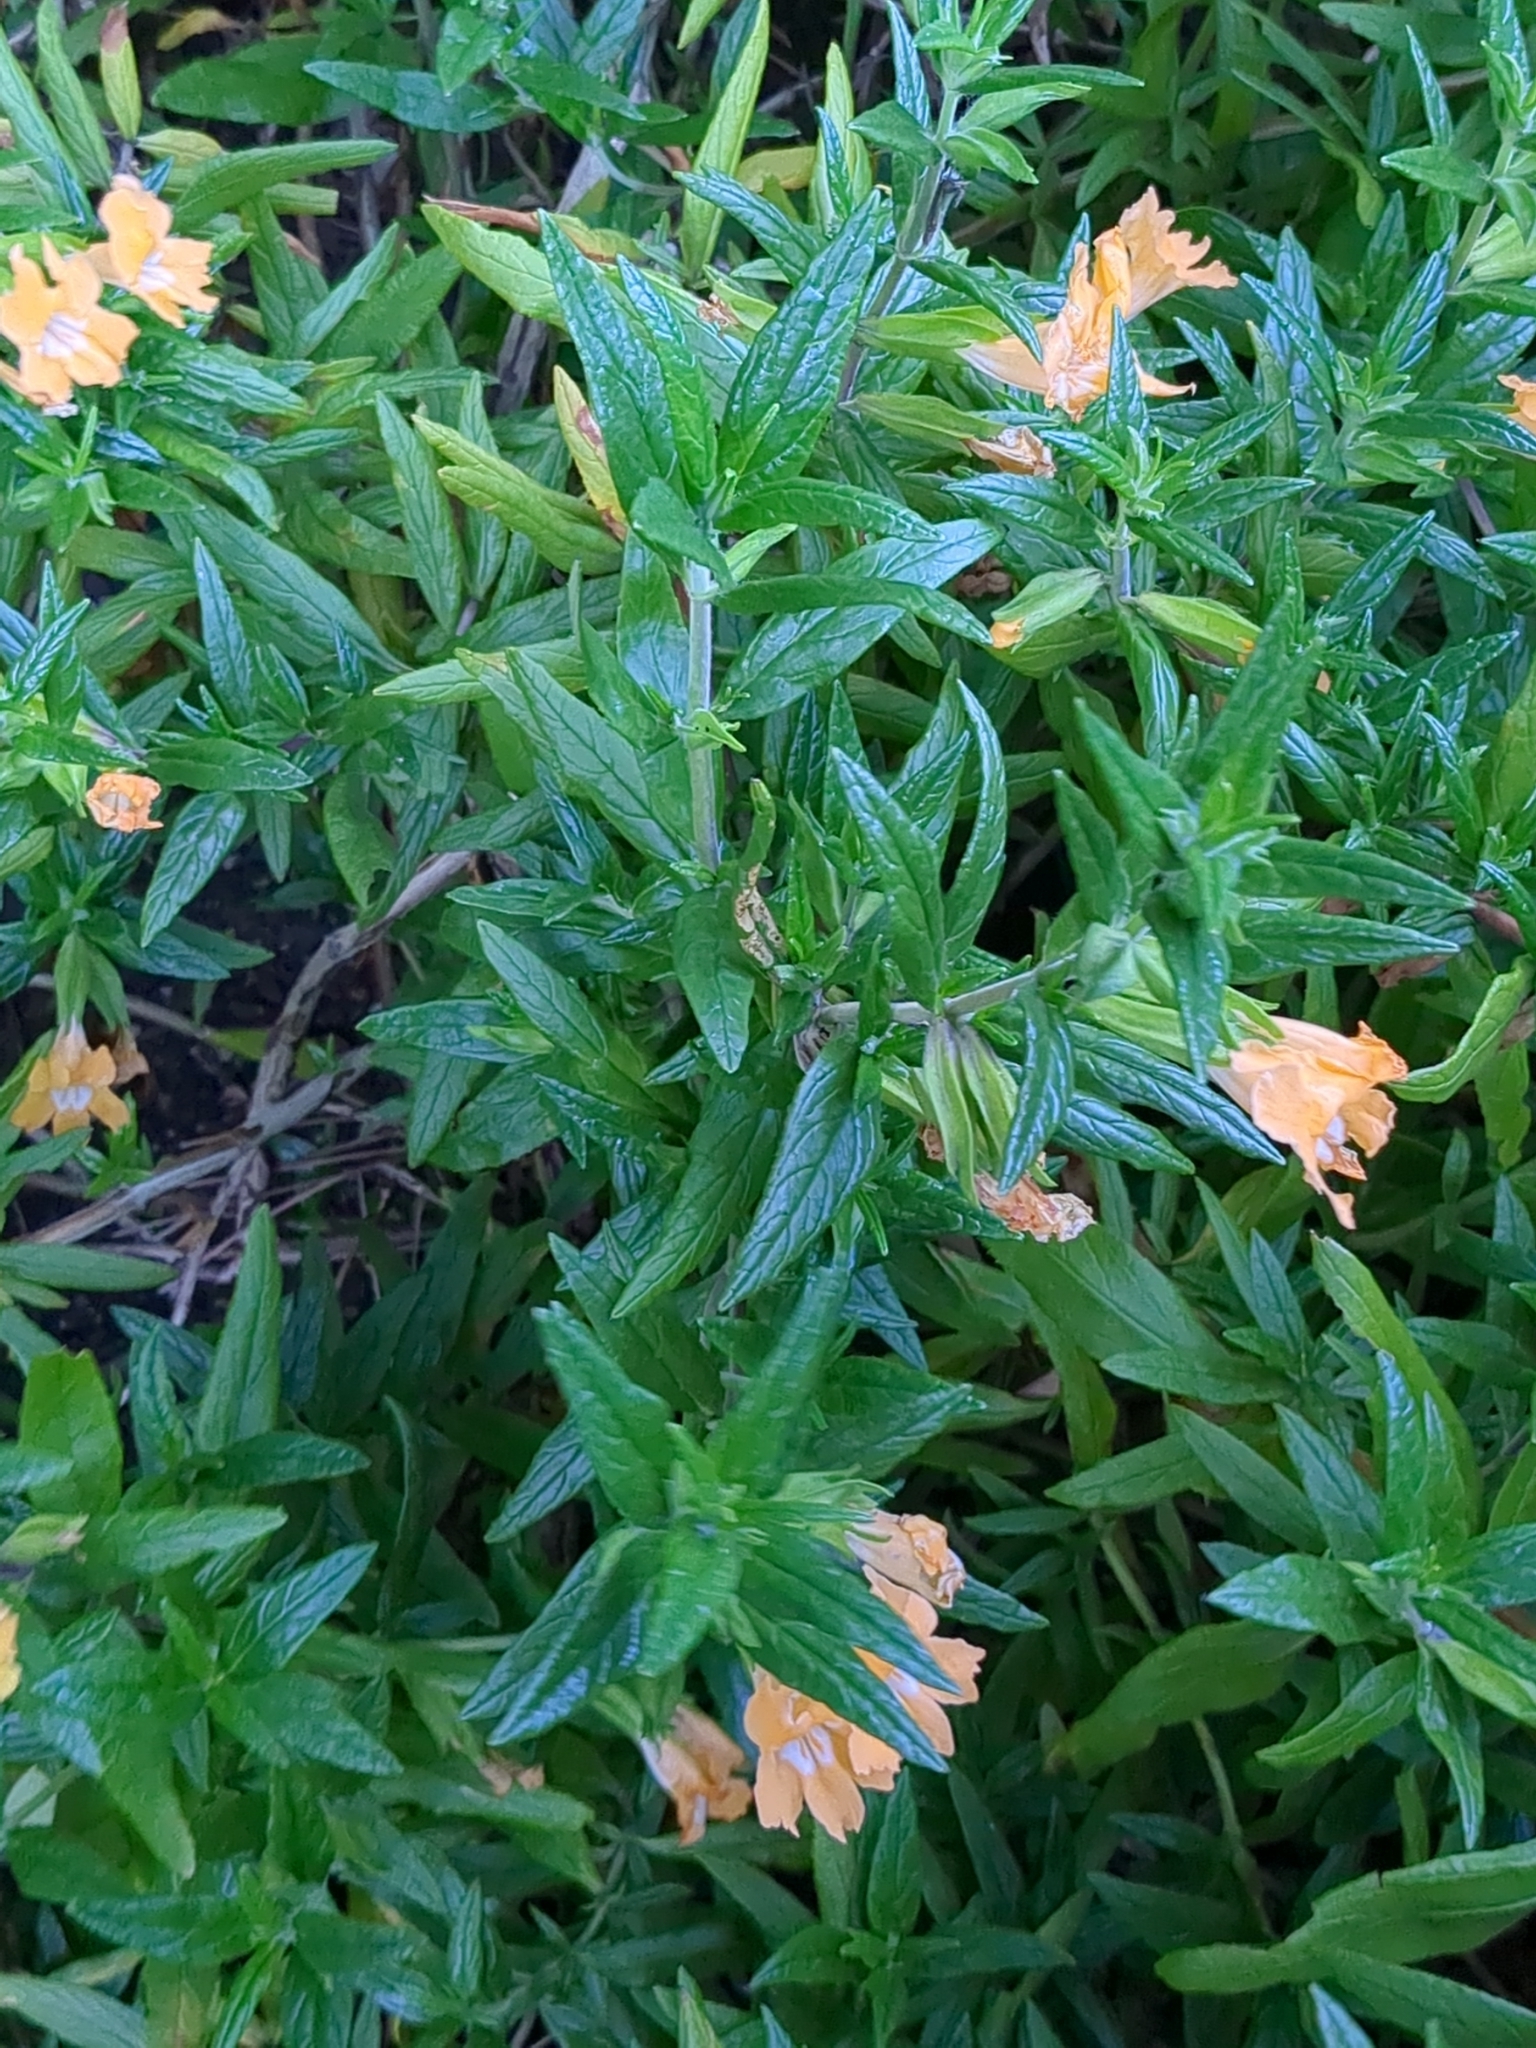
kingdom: Plantae
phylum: Tracheophyta
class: Magnoliopsida
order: Lamiales
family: Phrymaceae
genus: Diplacus
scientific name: Diplacus aurantiacus
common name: Bush monkey-flower
